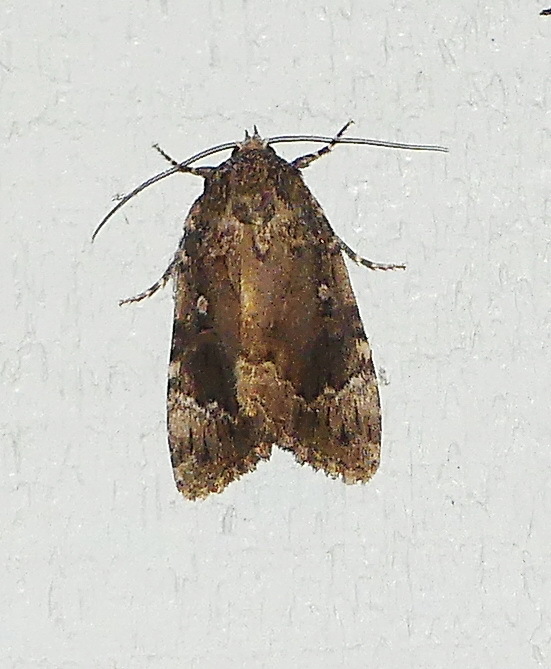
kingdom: Animalia
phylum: Arthropoda
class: Insecta
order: Lepidoptera
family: Noctuidae
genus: Amphipyra
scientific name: Amphipyra pyramidoides
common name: American copper underwing
